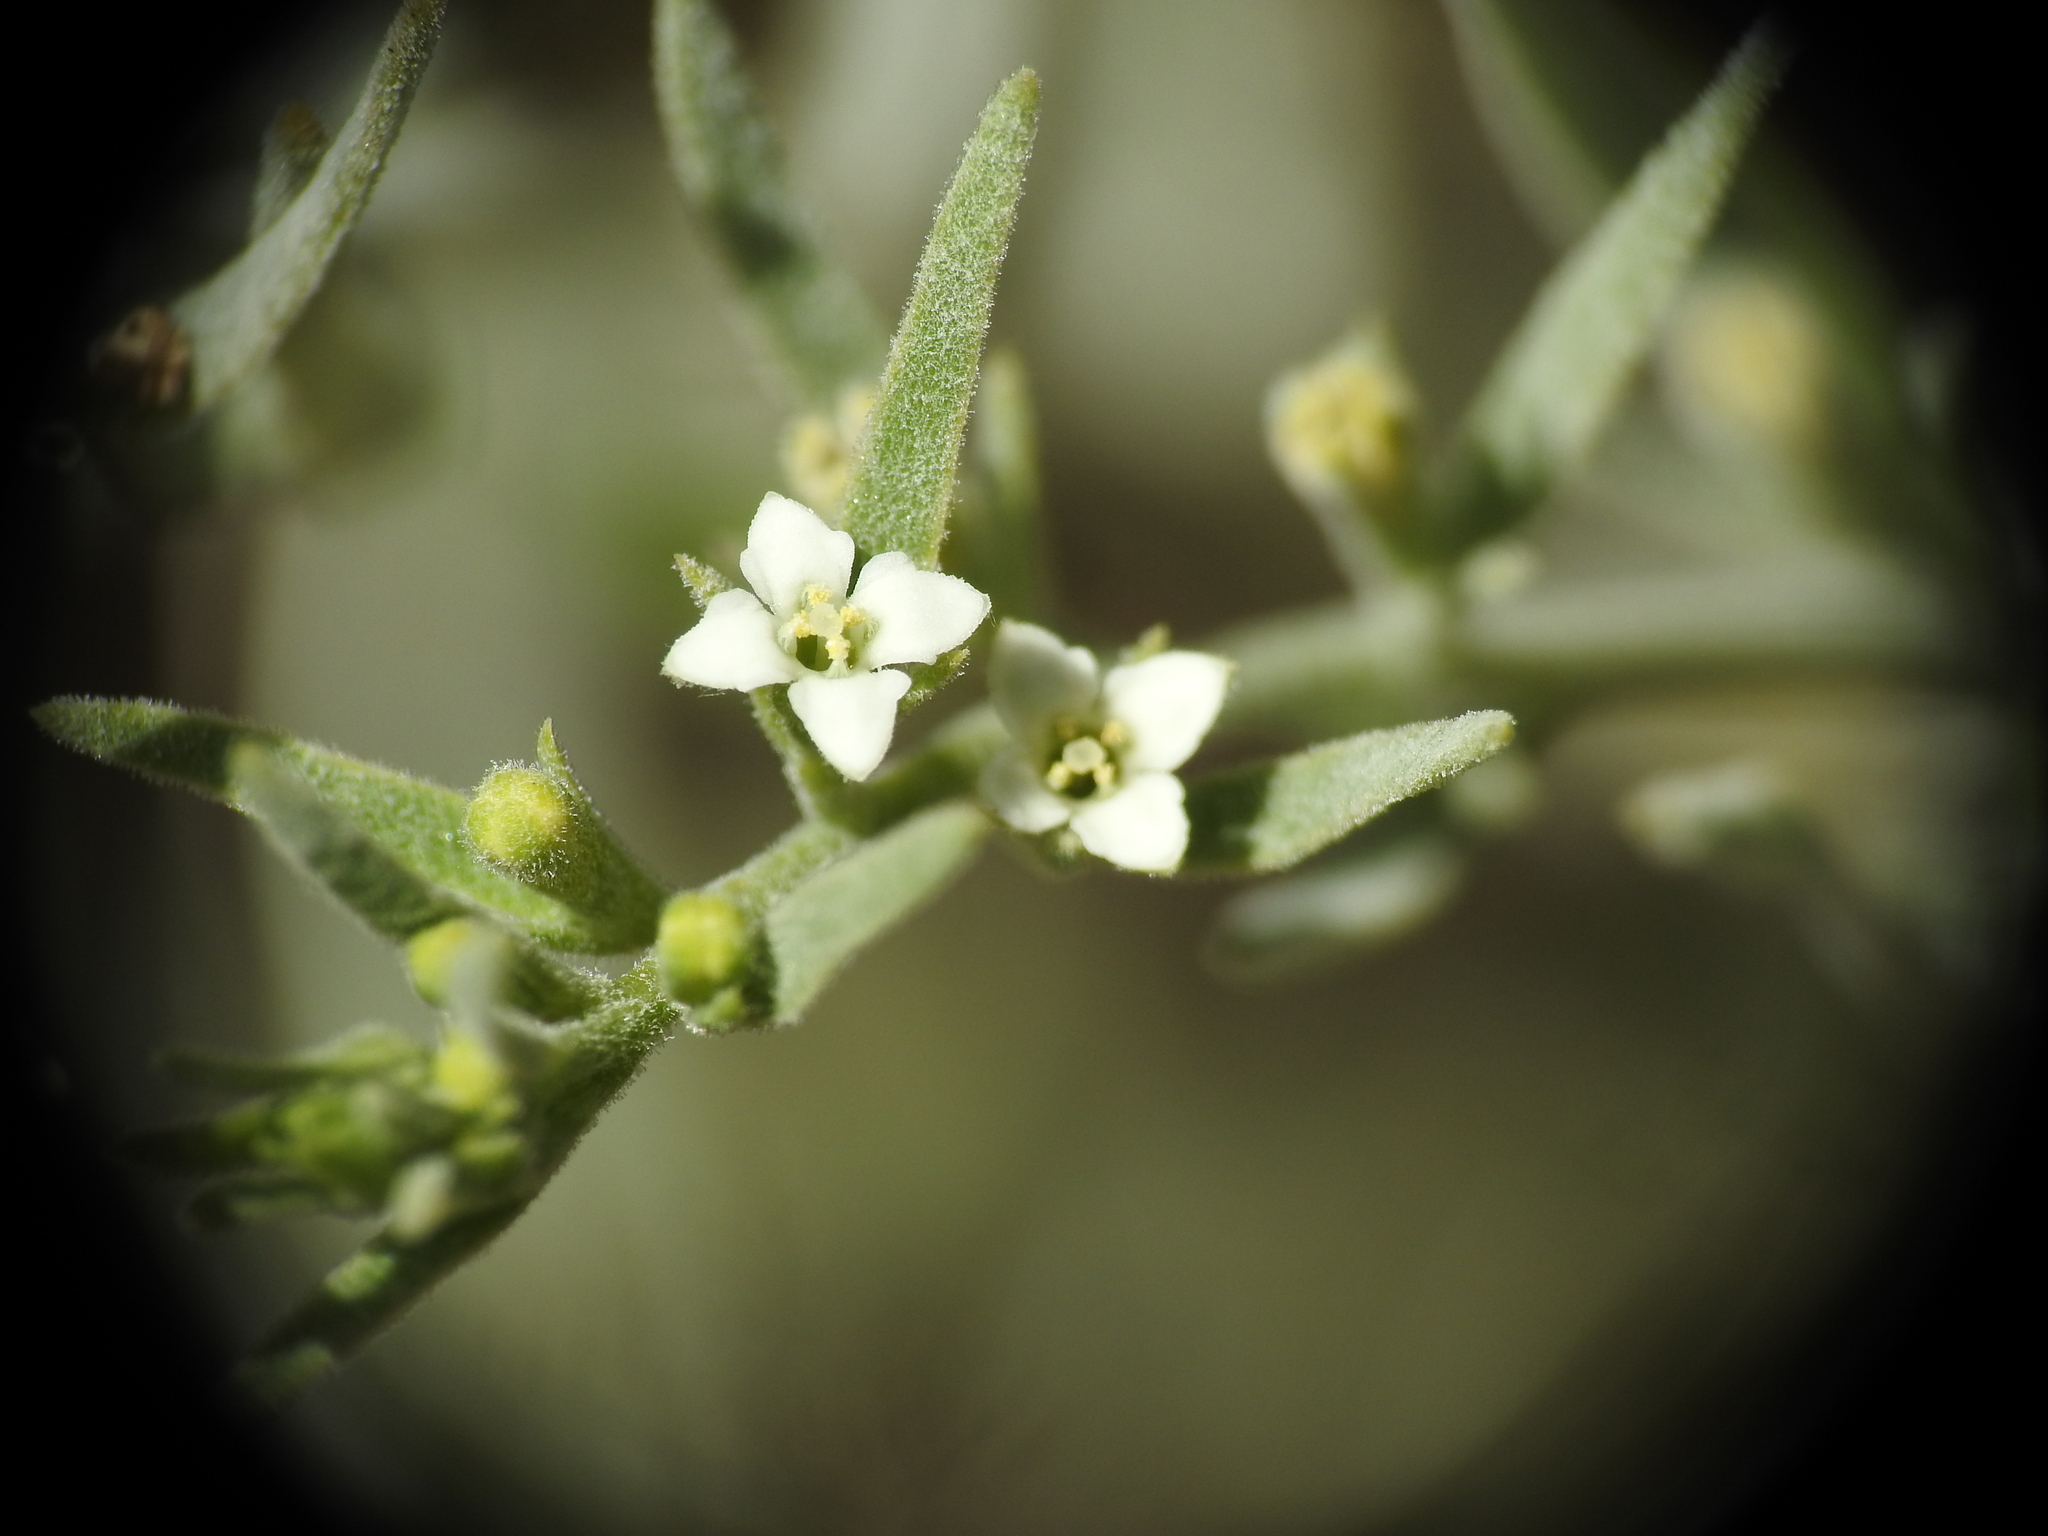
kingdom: Plantae
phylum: Tracheophyta
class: Magnoliopsida
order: Santalales
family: Thesiaceae
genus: Thesium
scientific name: Thesium alpinum
